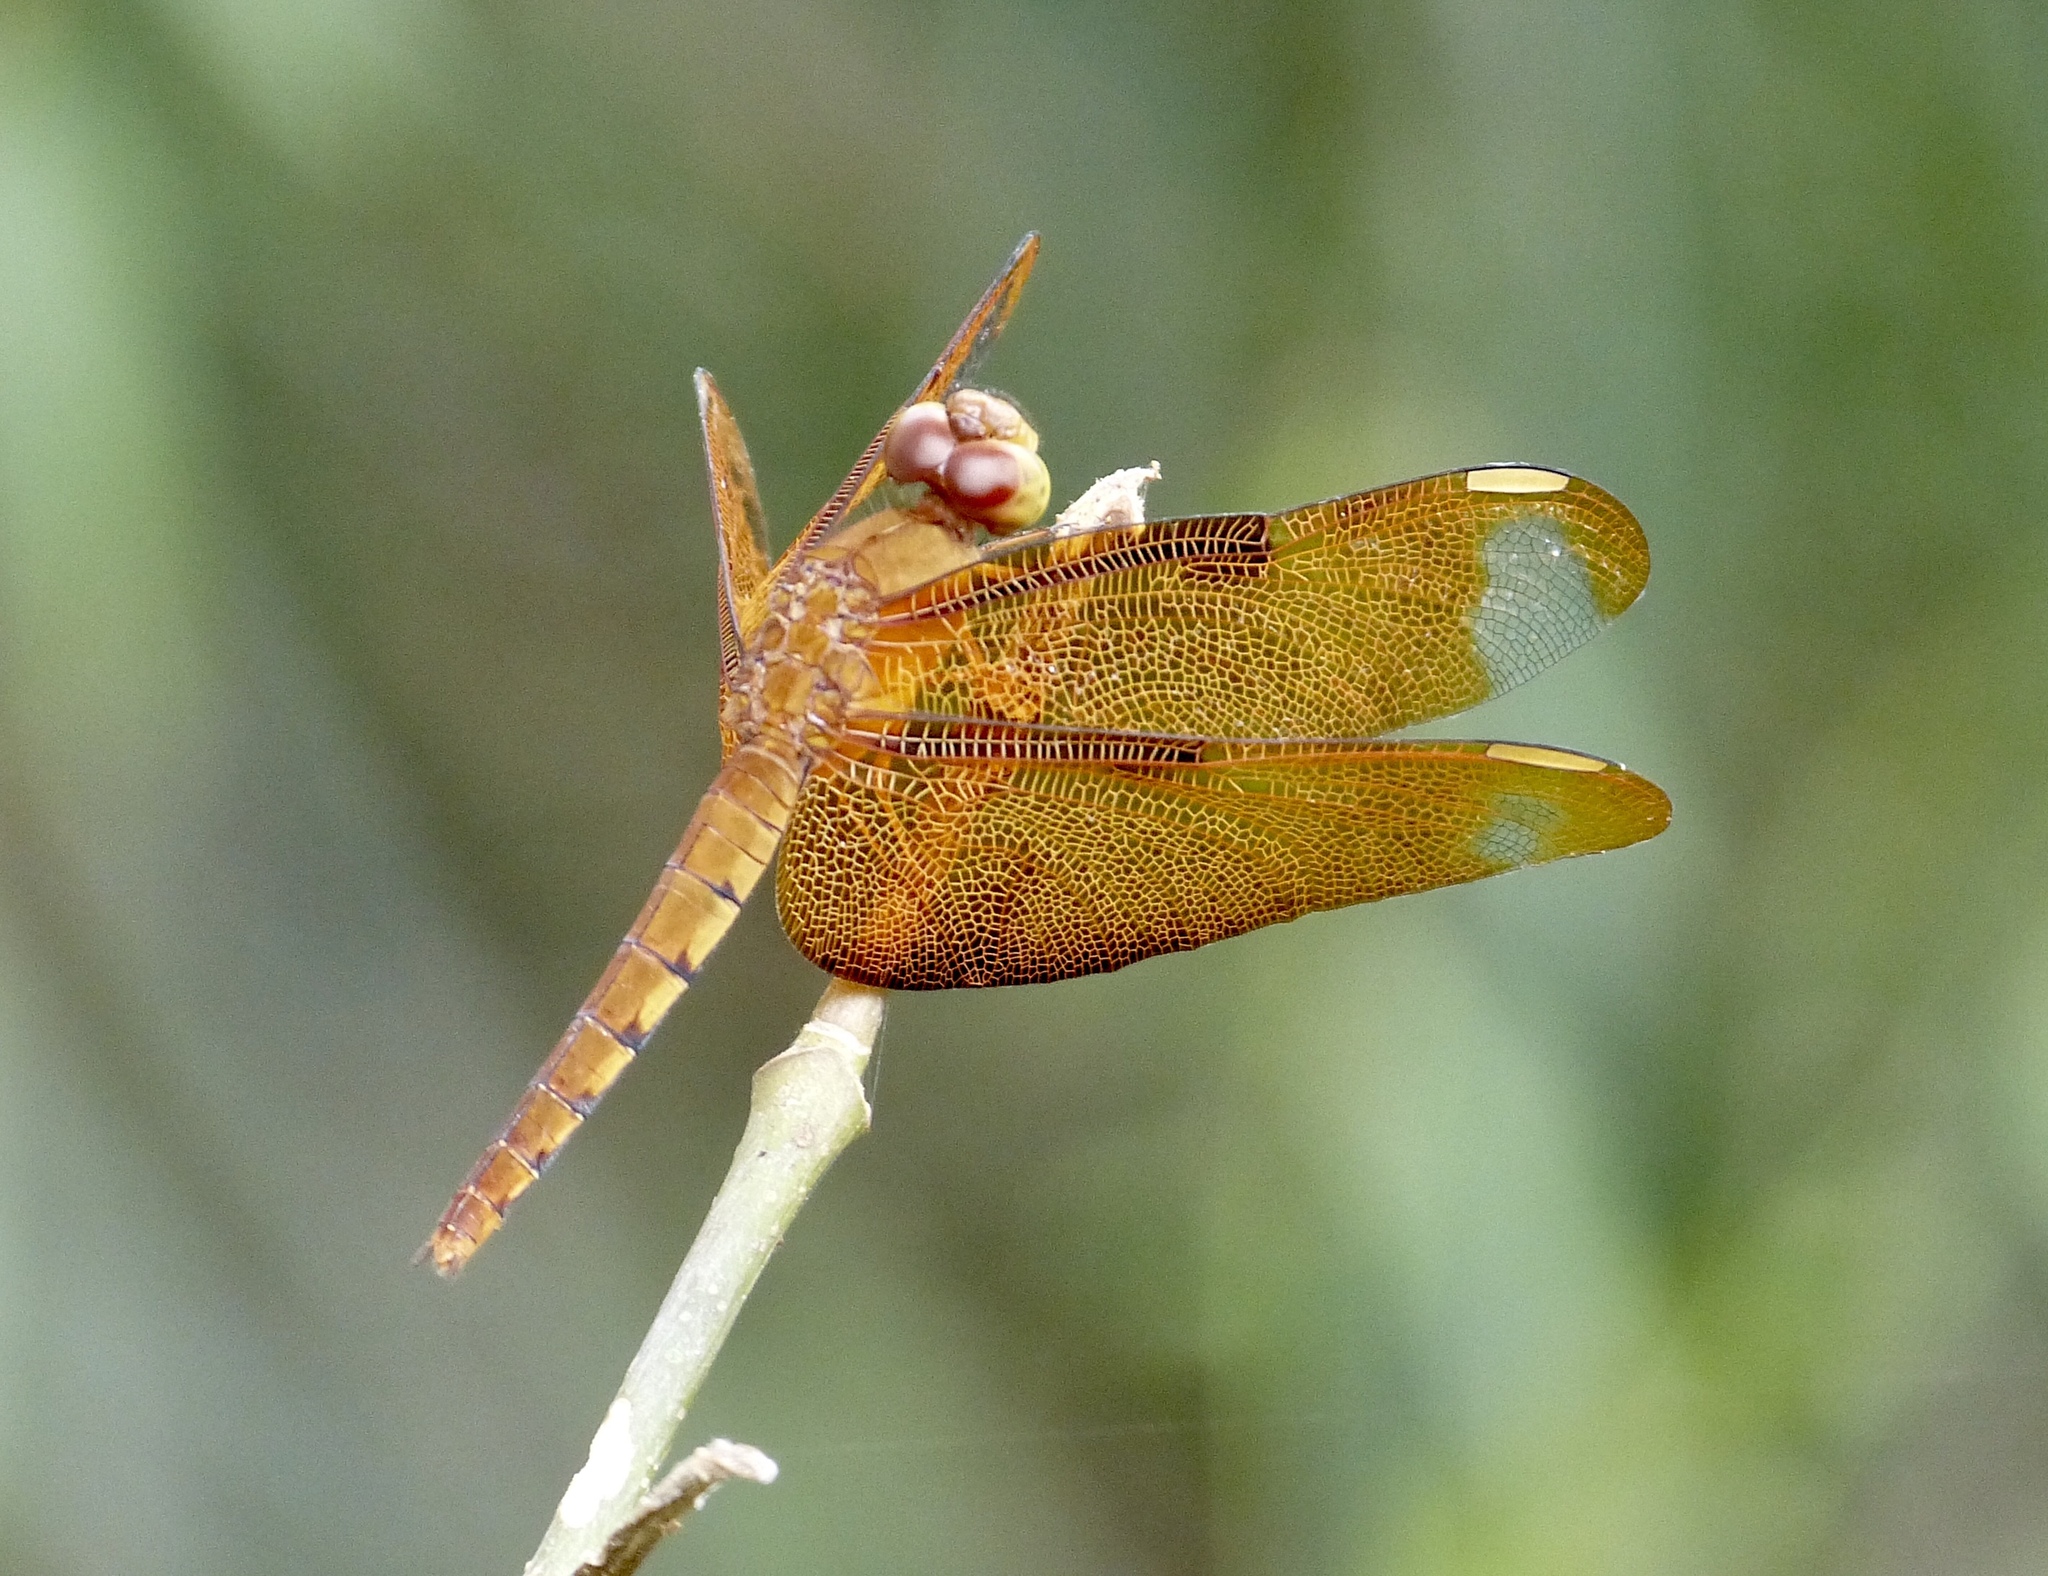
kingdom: Animalia
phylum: Arthropoda
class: Insecta
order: Odonata
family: Libellulidae
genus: Neurothemis
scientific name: Neurothemis fulvia
